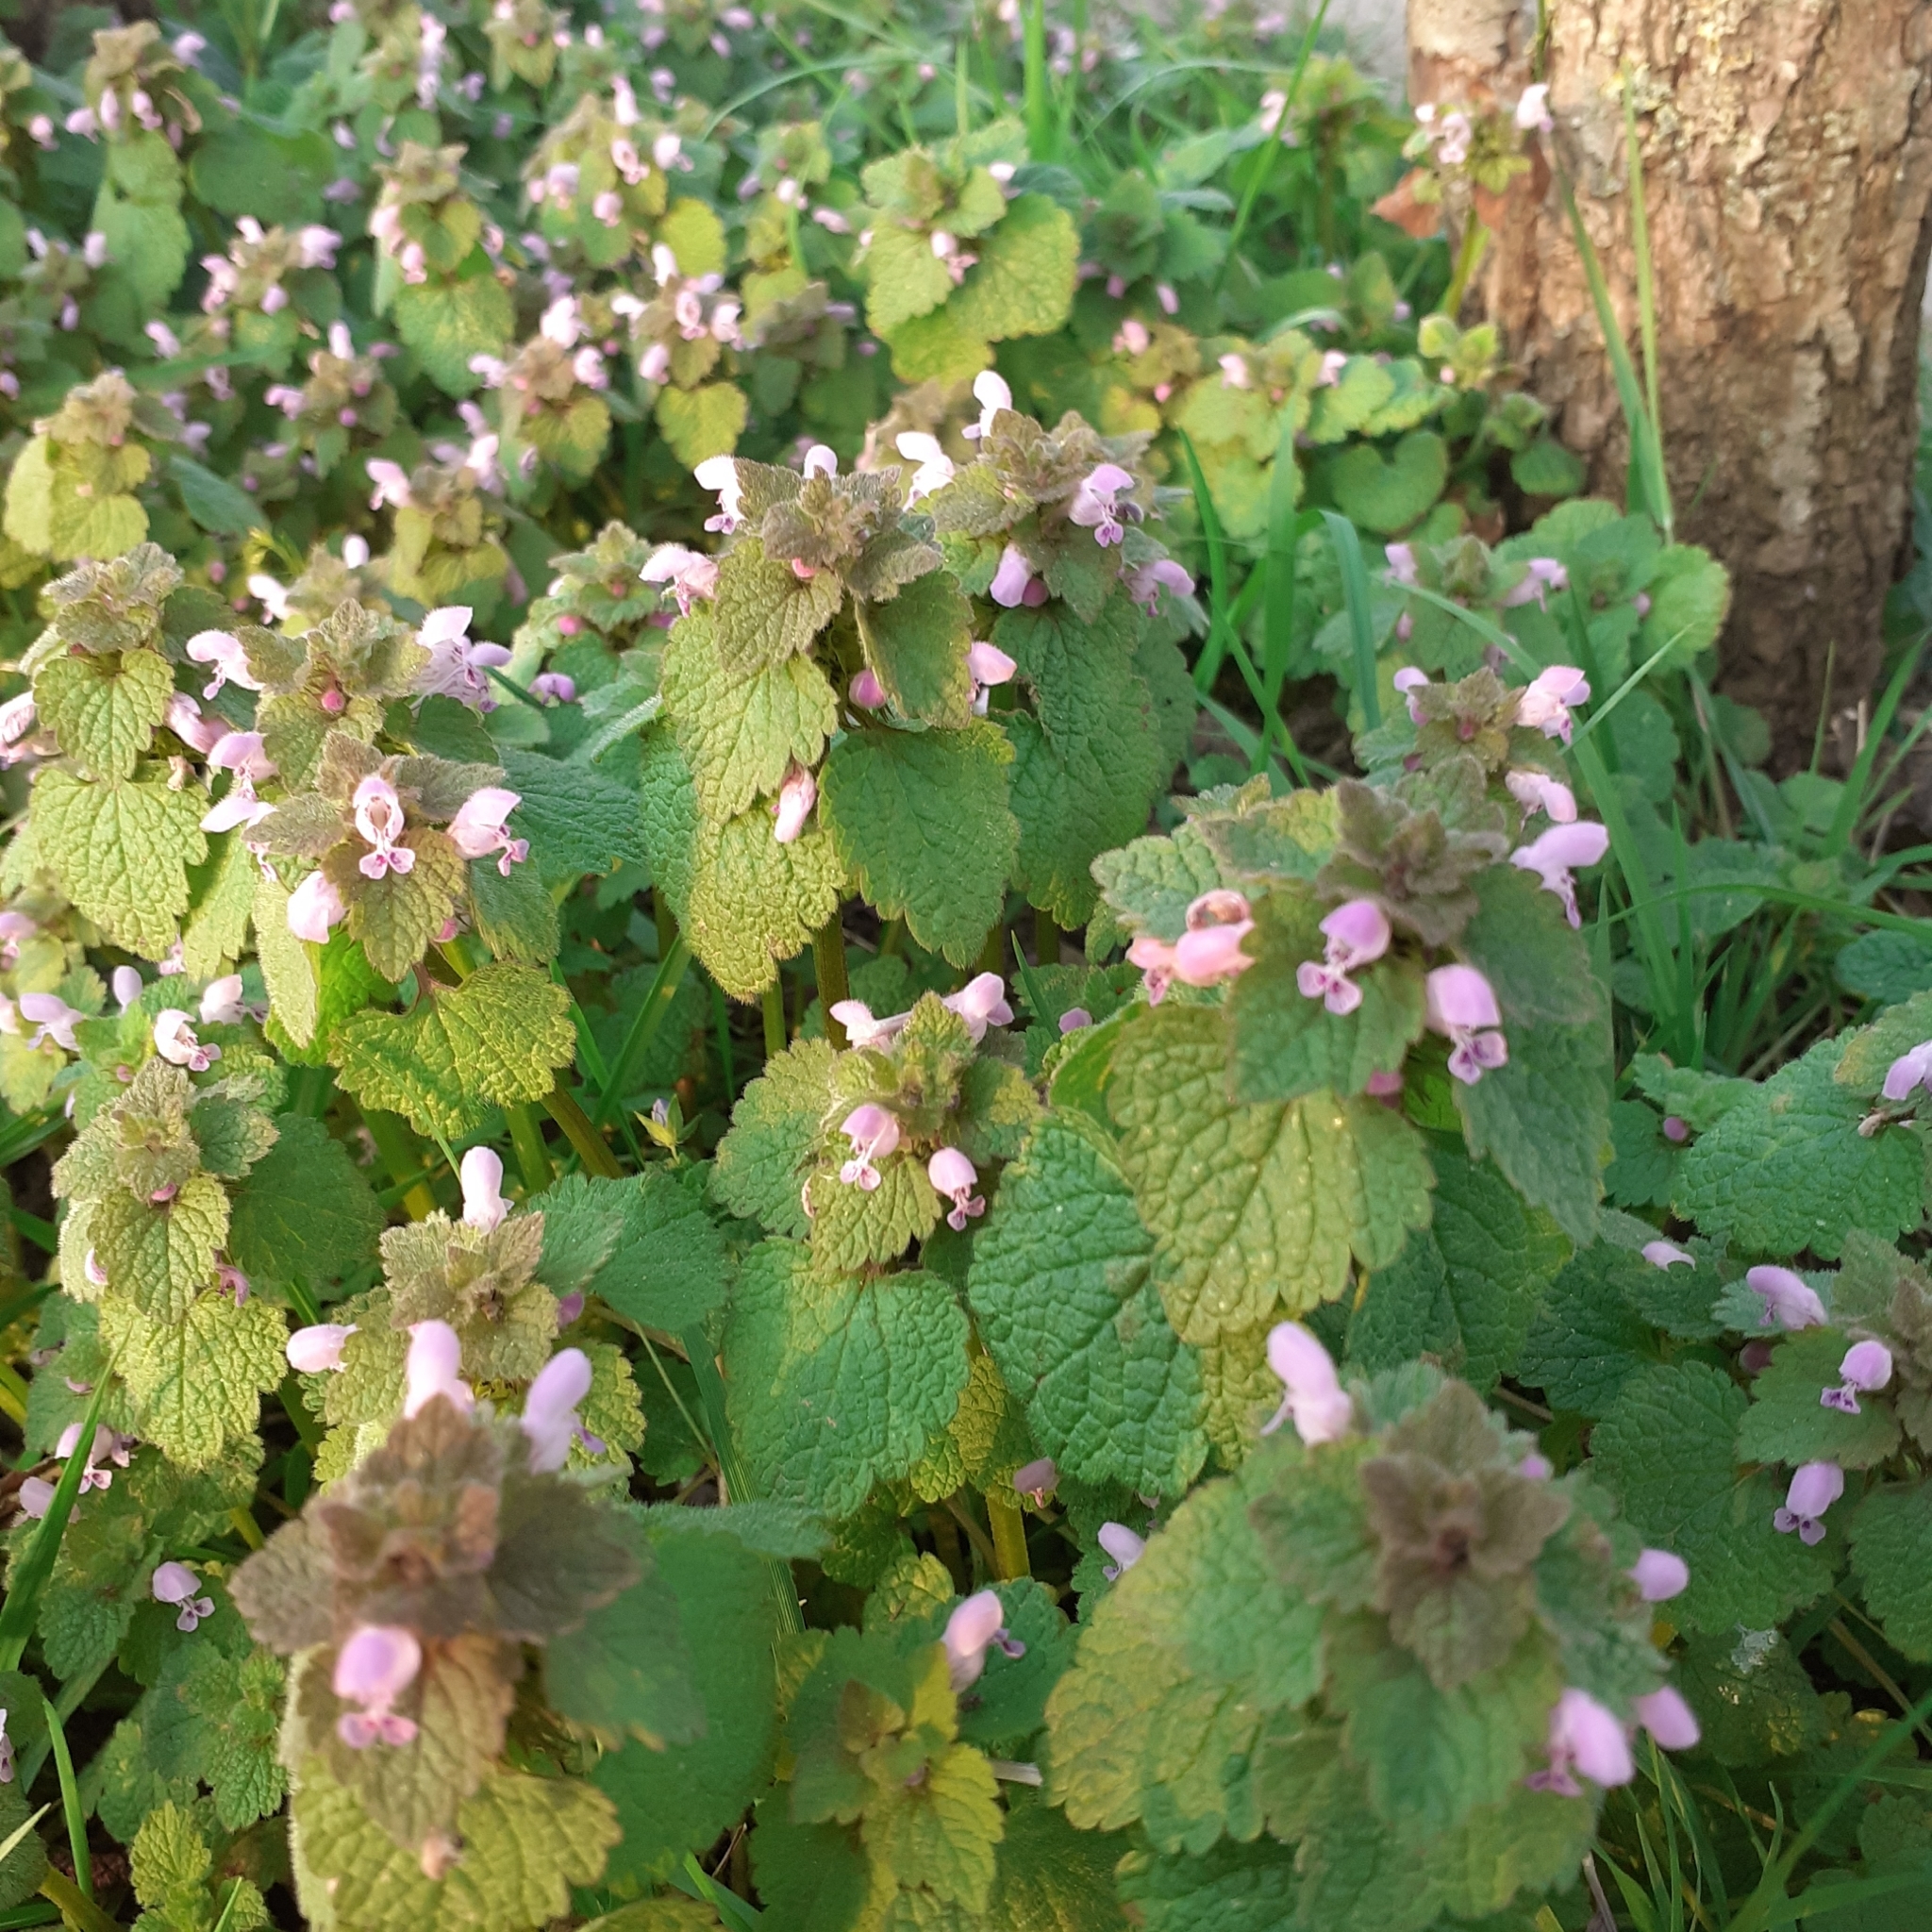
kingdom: Plantae
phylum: Tracheophyta
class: Magnoliopsida
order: Lamiales
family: Lamiaceae
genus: Lamium
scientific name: Lamium purpureum
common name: Red dead-nettle
